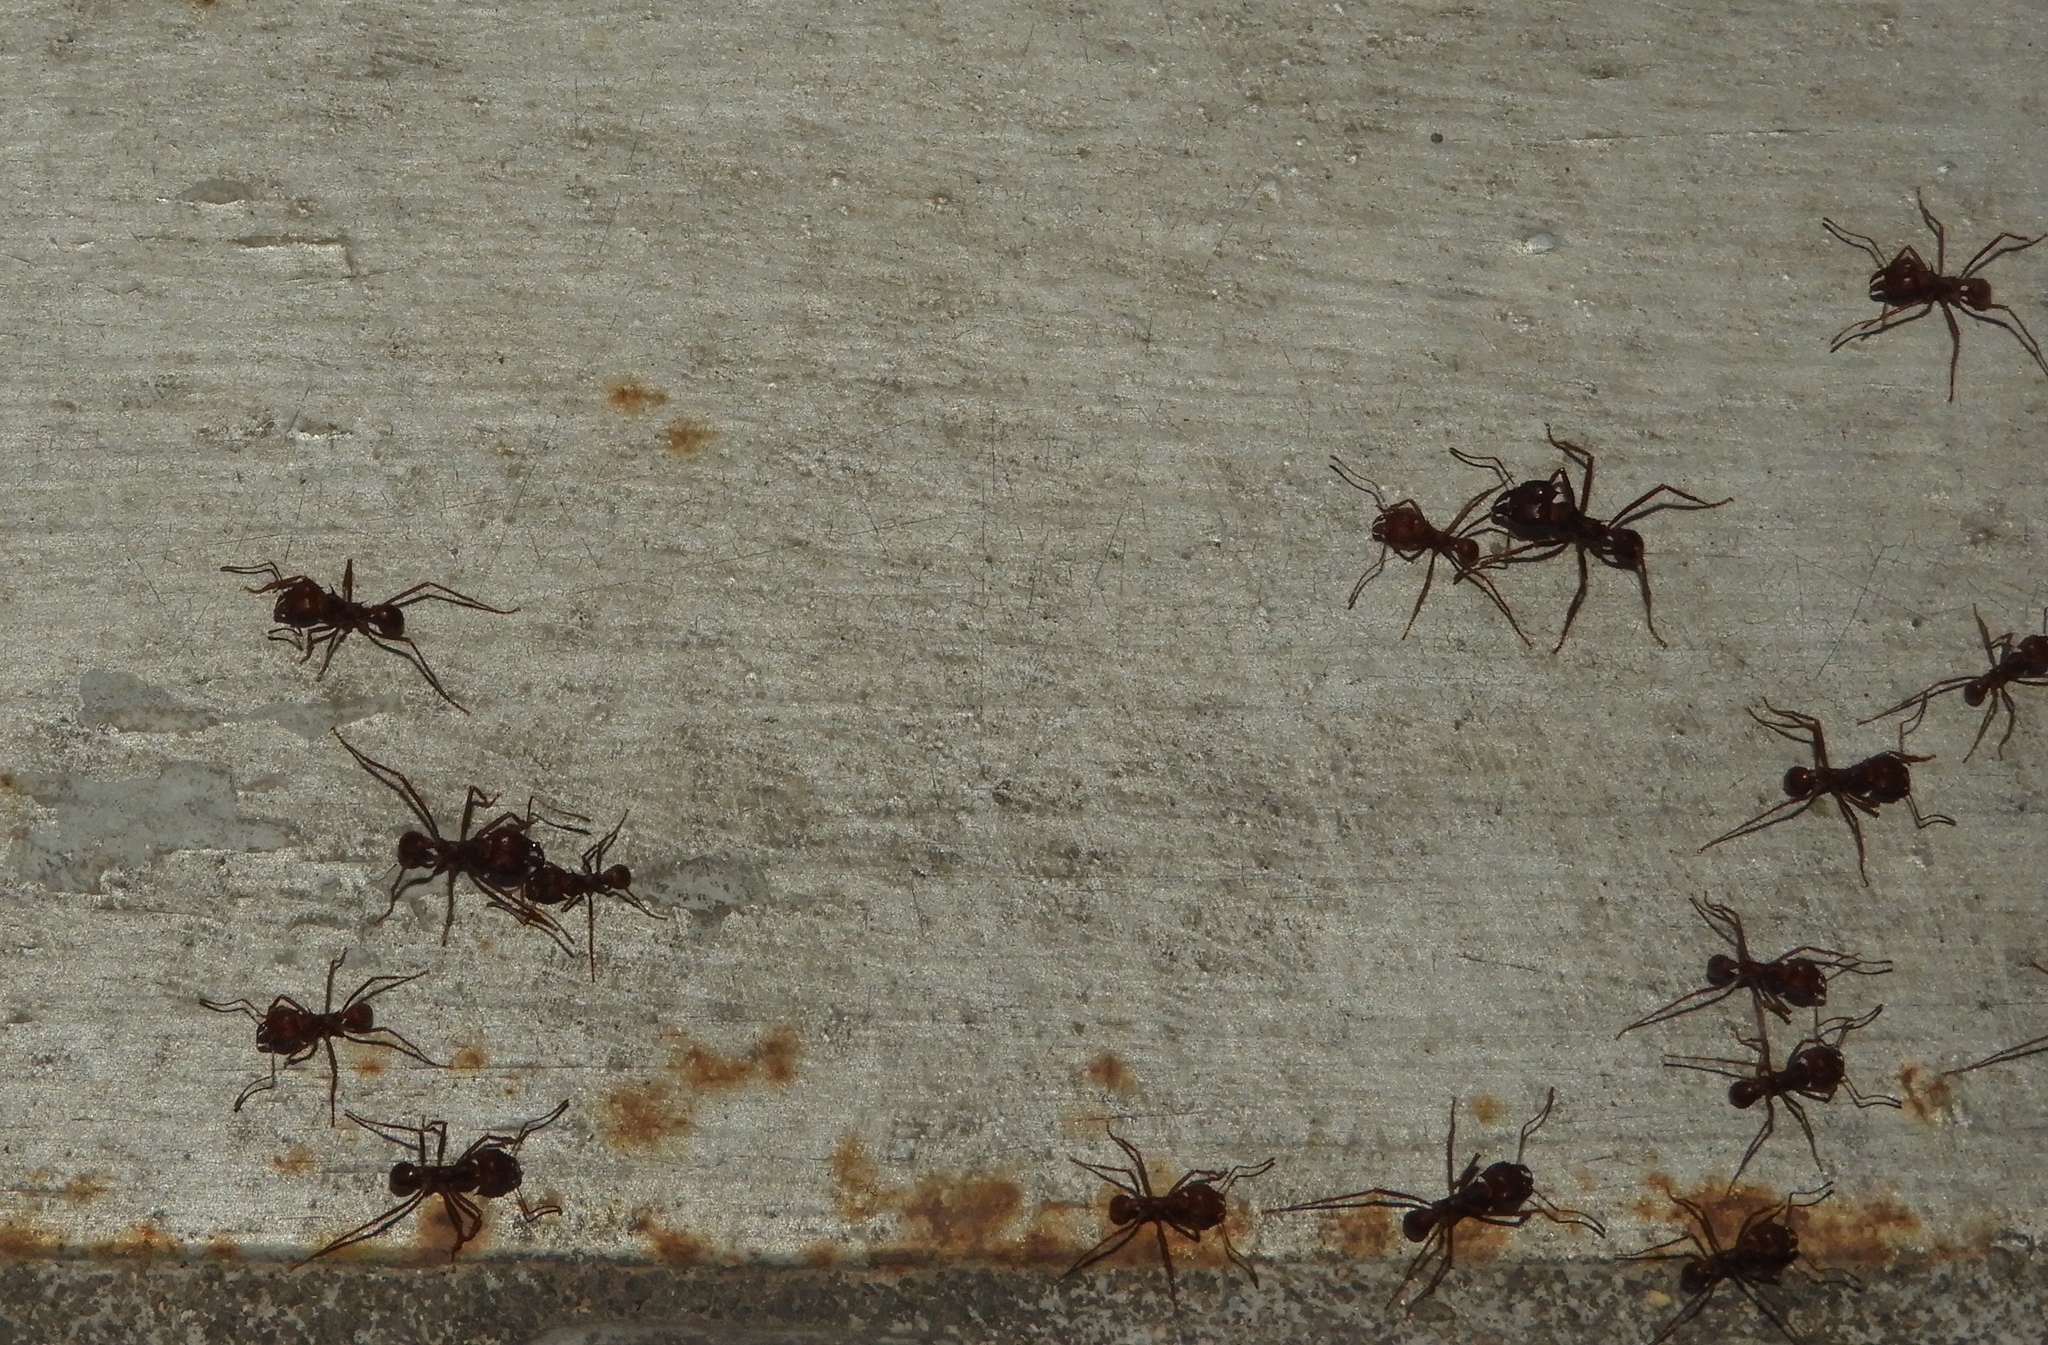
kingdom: Animalia
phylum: Arthropoda
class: Insecta
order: Hymenoptera
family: Formicidae
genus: Atta
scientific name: Atta mexicana
